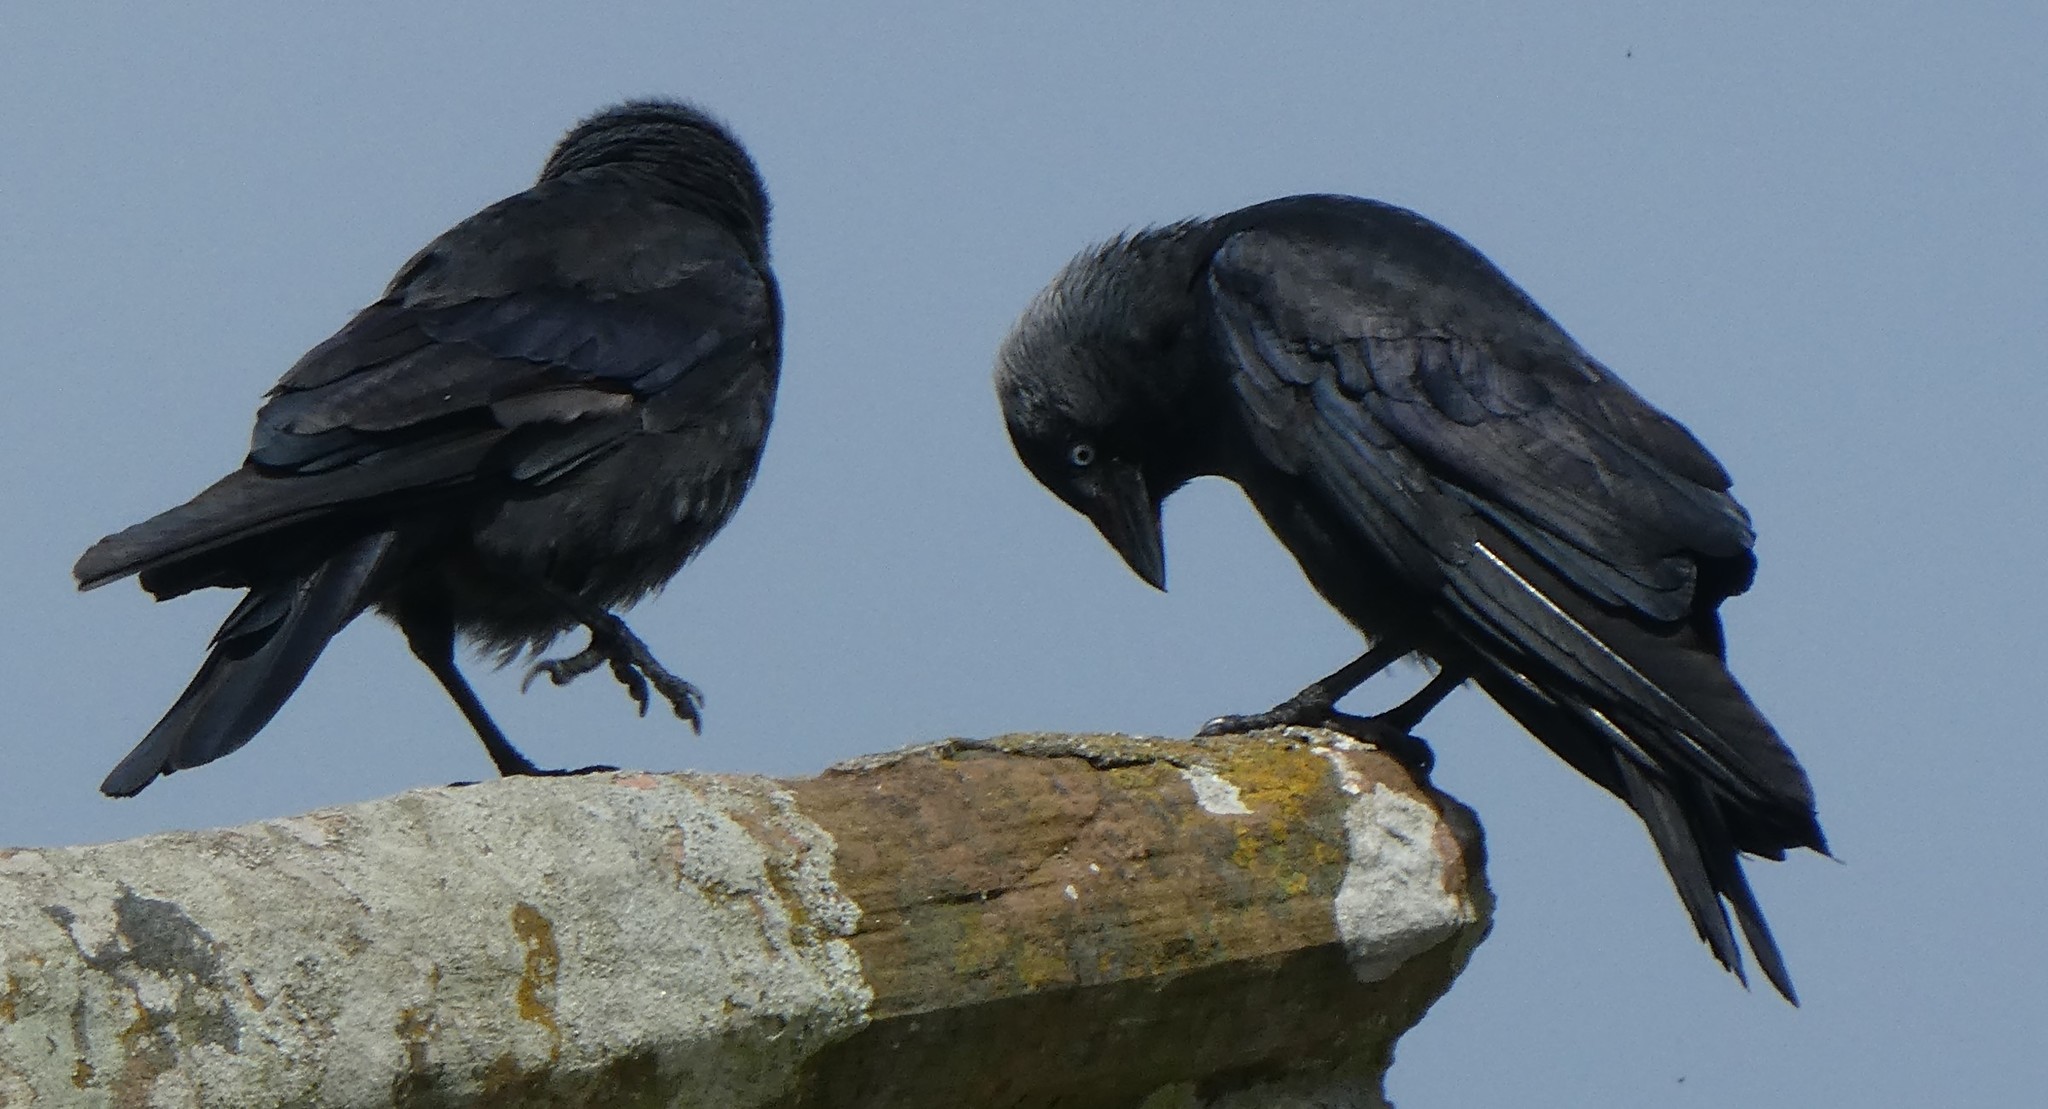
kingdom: Animalia
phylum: Chordata
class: Aves
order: Passeriformes
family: Corvidae
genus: Coloeus
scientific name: Coloeus monedula
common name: Western jackdaw
